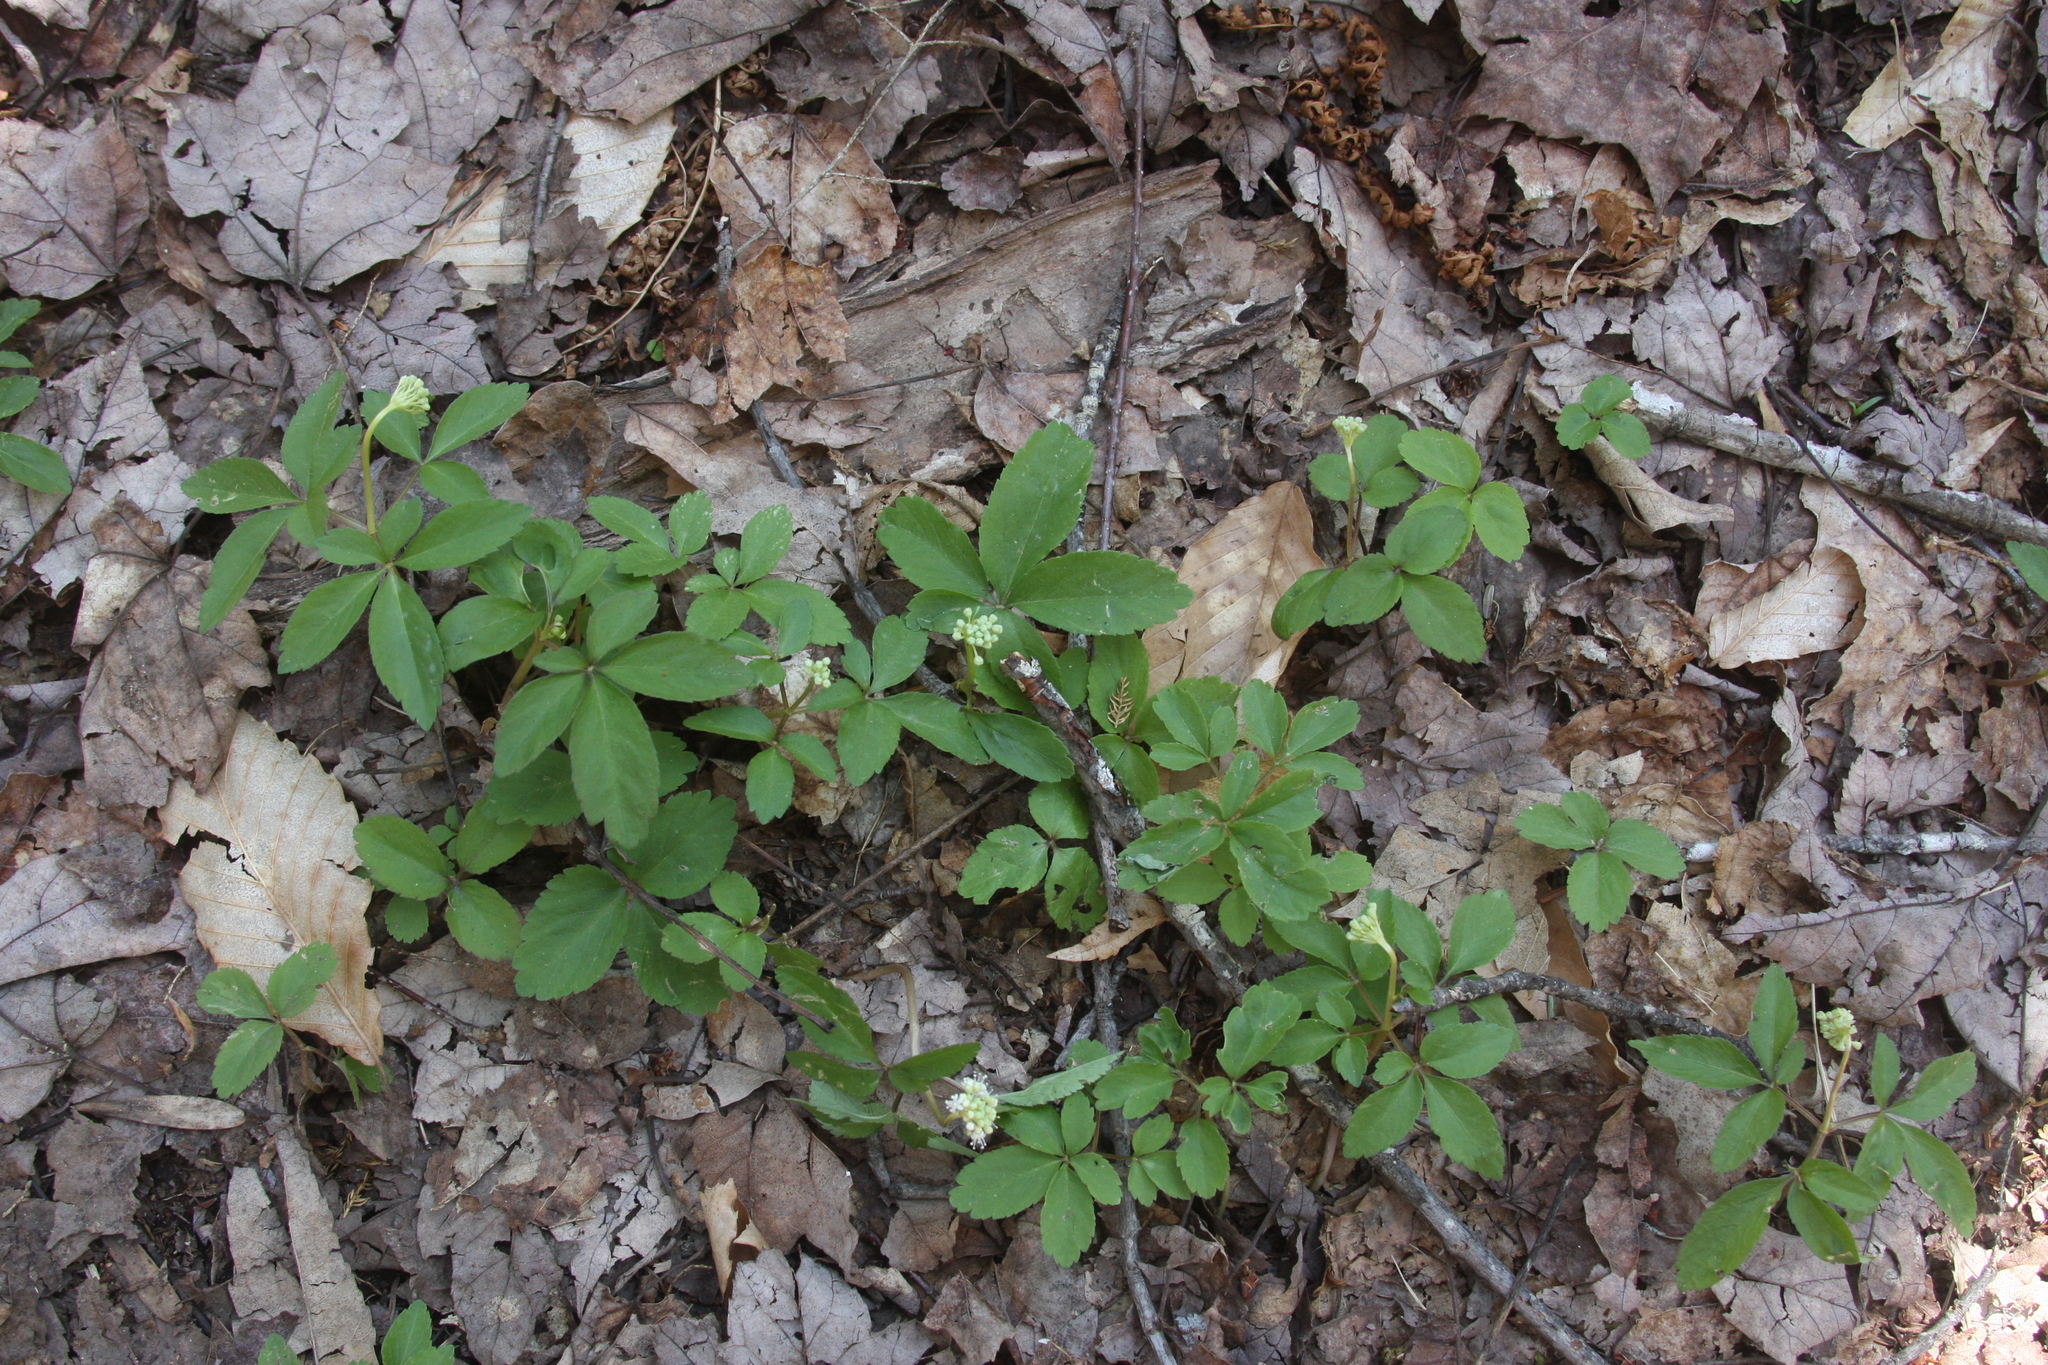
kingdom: Plantae
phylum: Tracheophyta
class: Magnoliopsida
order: Apiales
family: Araliaceae
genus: Panax
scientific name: Panax trifolius
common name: Dwarf ginseng
